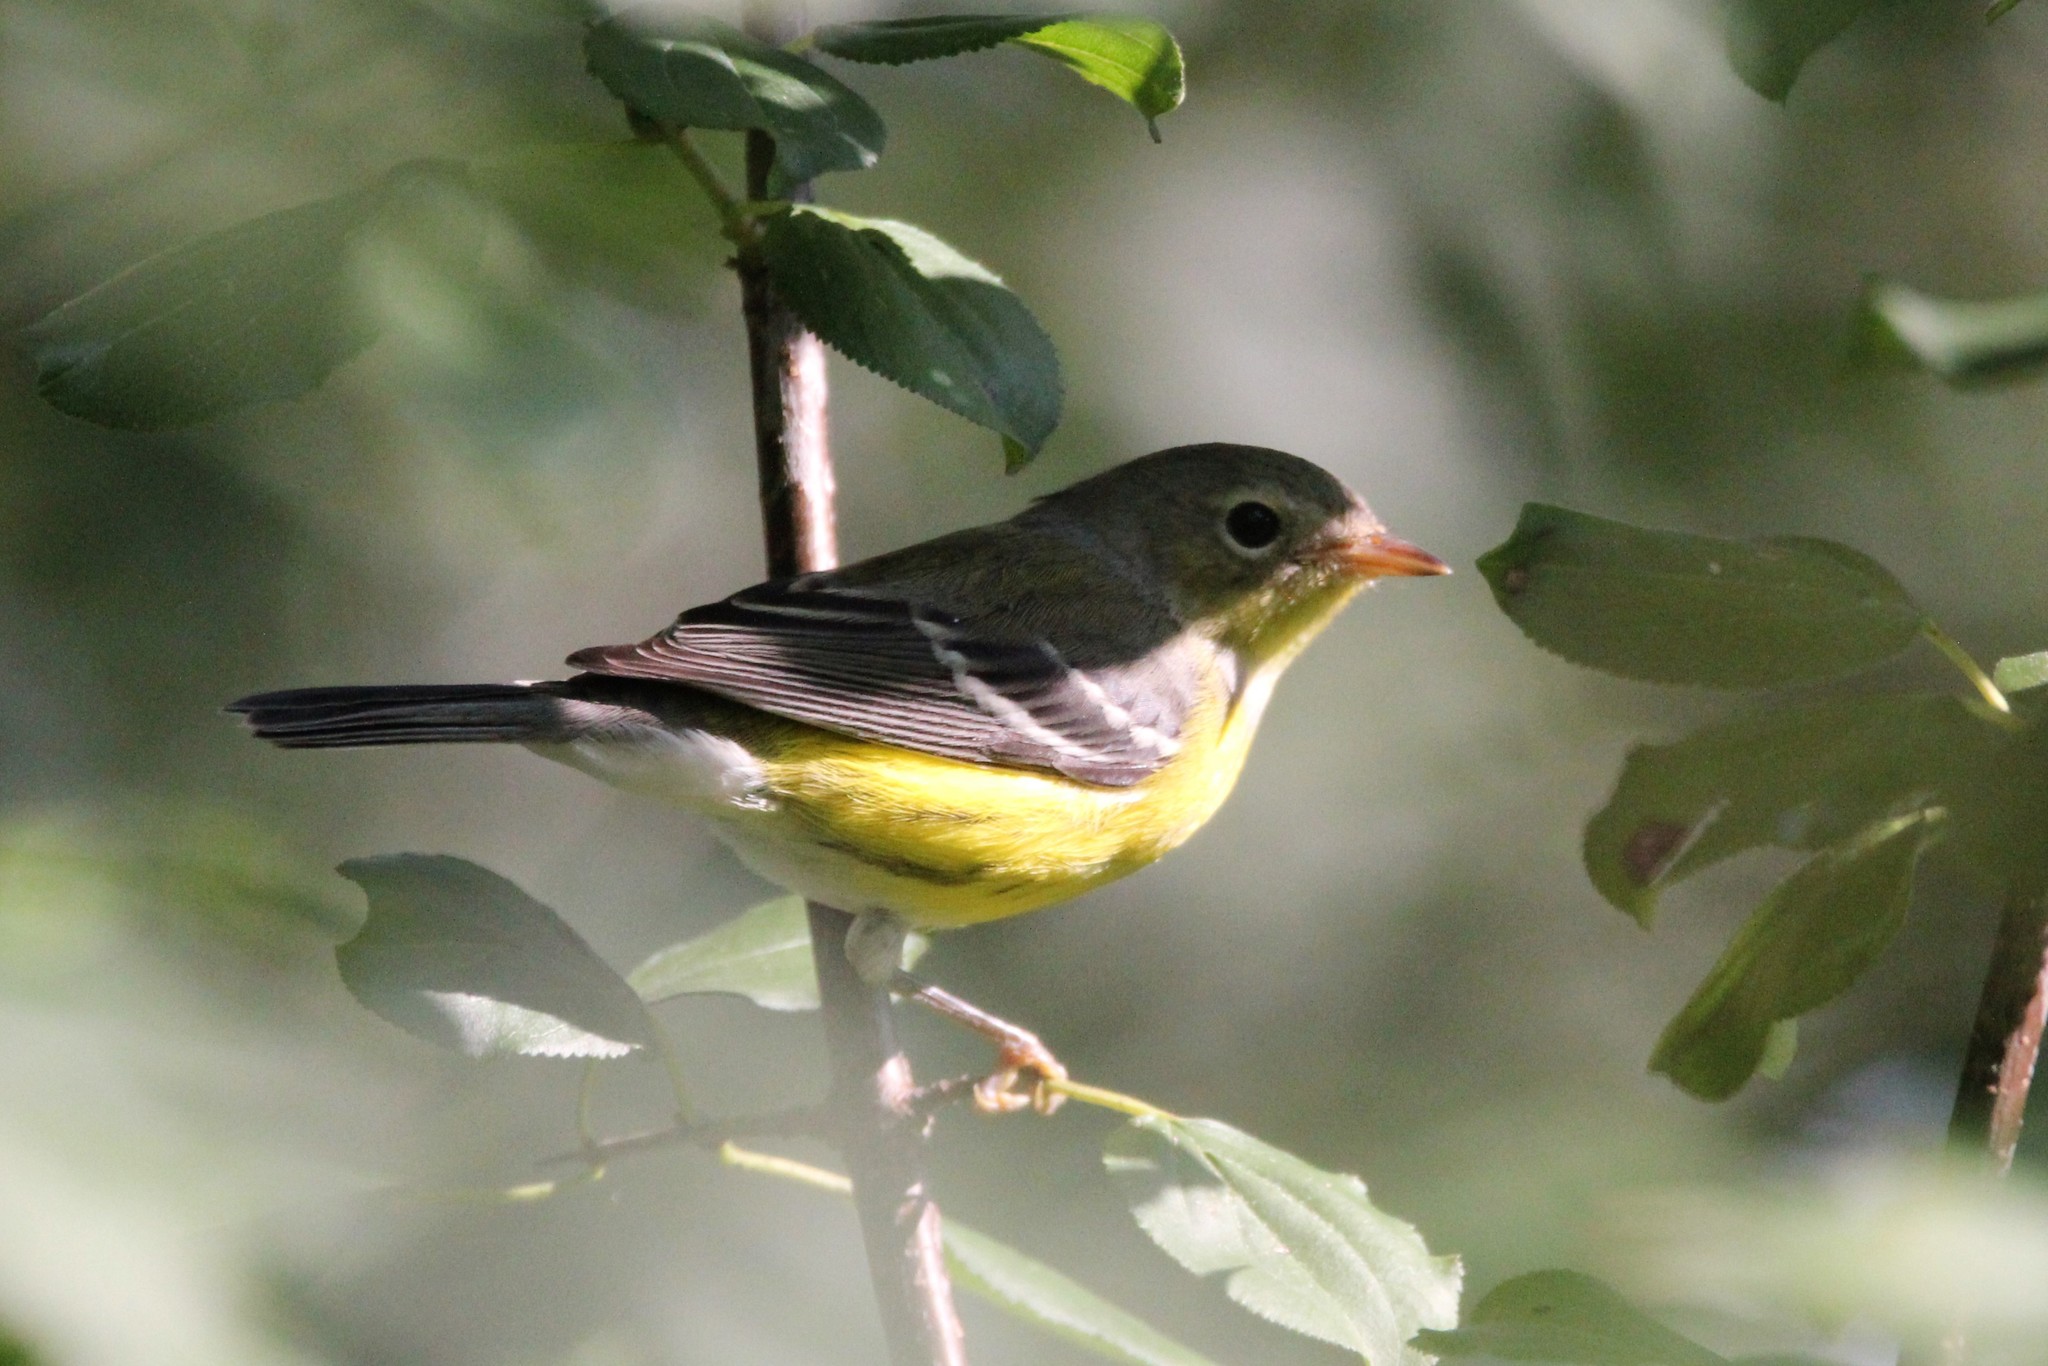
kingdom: Animalia
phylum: Chordata
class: Aves
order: Passeriformes
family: Parulidae
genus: Setophaga
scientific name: Setophaga magnolia
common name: Magnolia warbler
